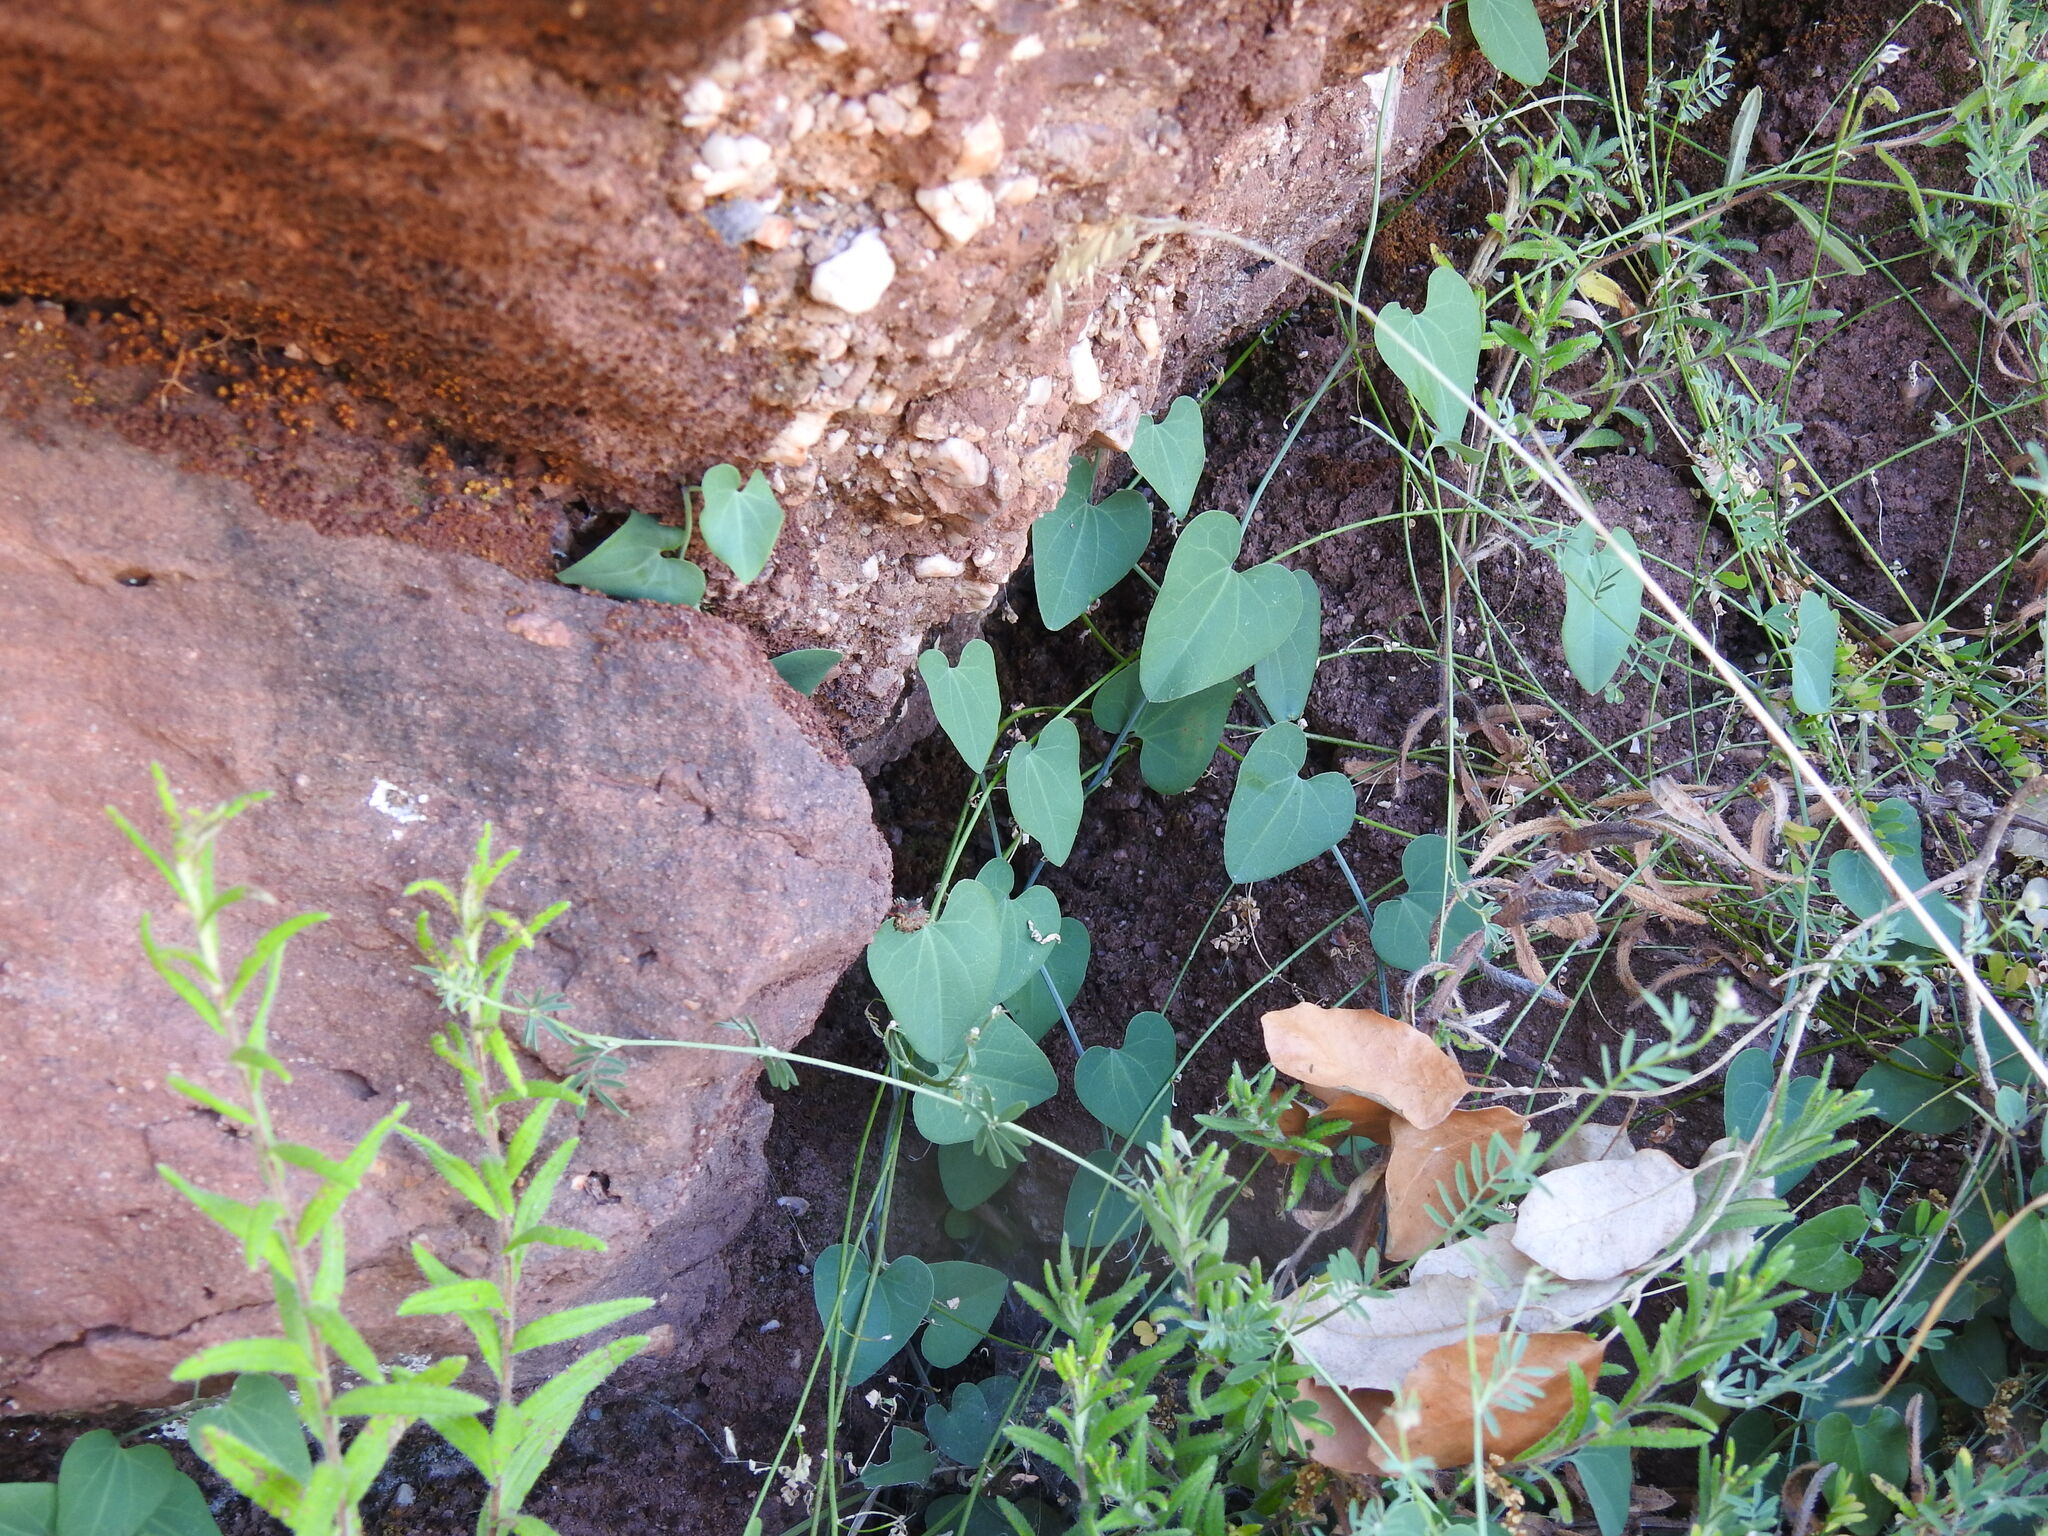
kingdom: Plantae
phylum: Tracheophyta
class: Magnoliopsida
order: Piperales
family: Aristolochiaceae
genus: Aristolochia
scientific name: Aristolochia baetica
